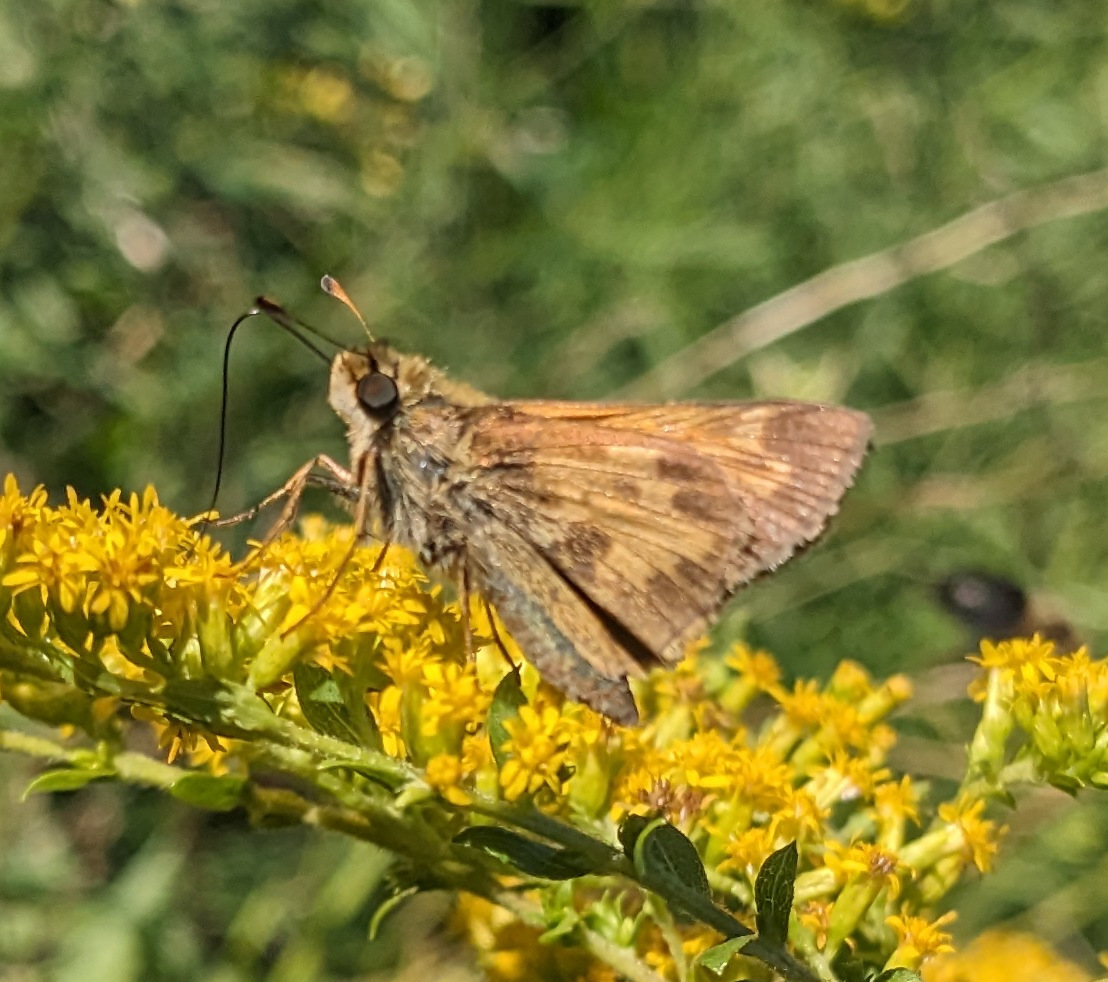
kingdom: Animalia
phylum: Arthropoda
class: Insecta
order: Lepidoptera
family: Hesperiidae
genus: Atalopedes
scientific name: Atalopedes
